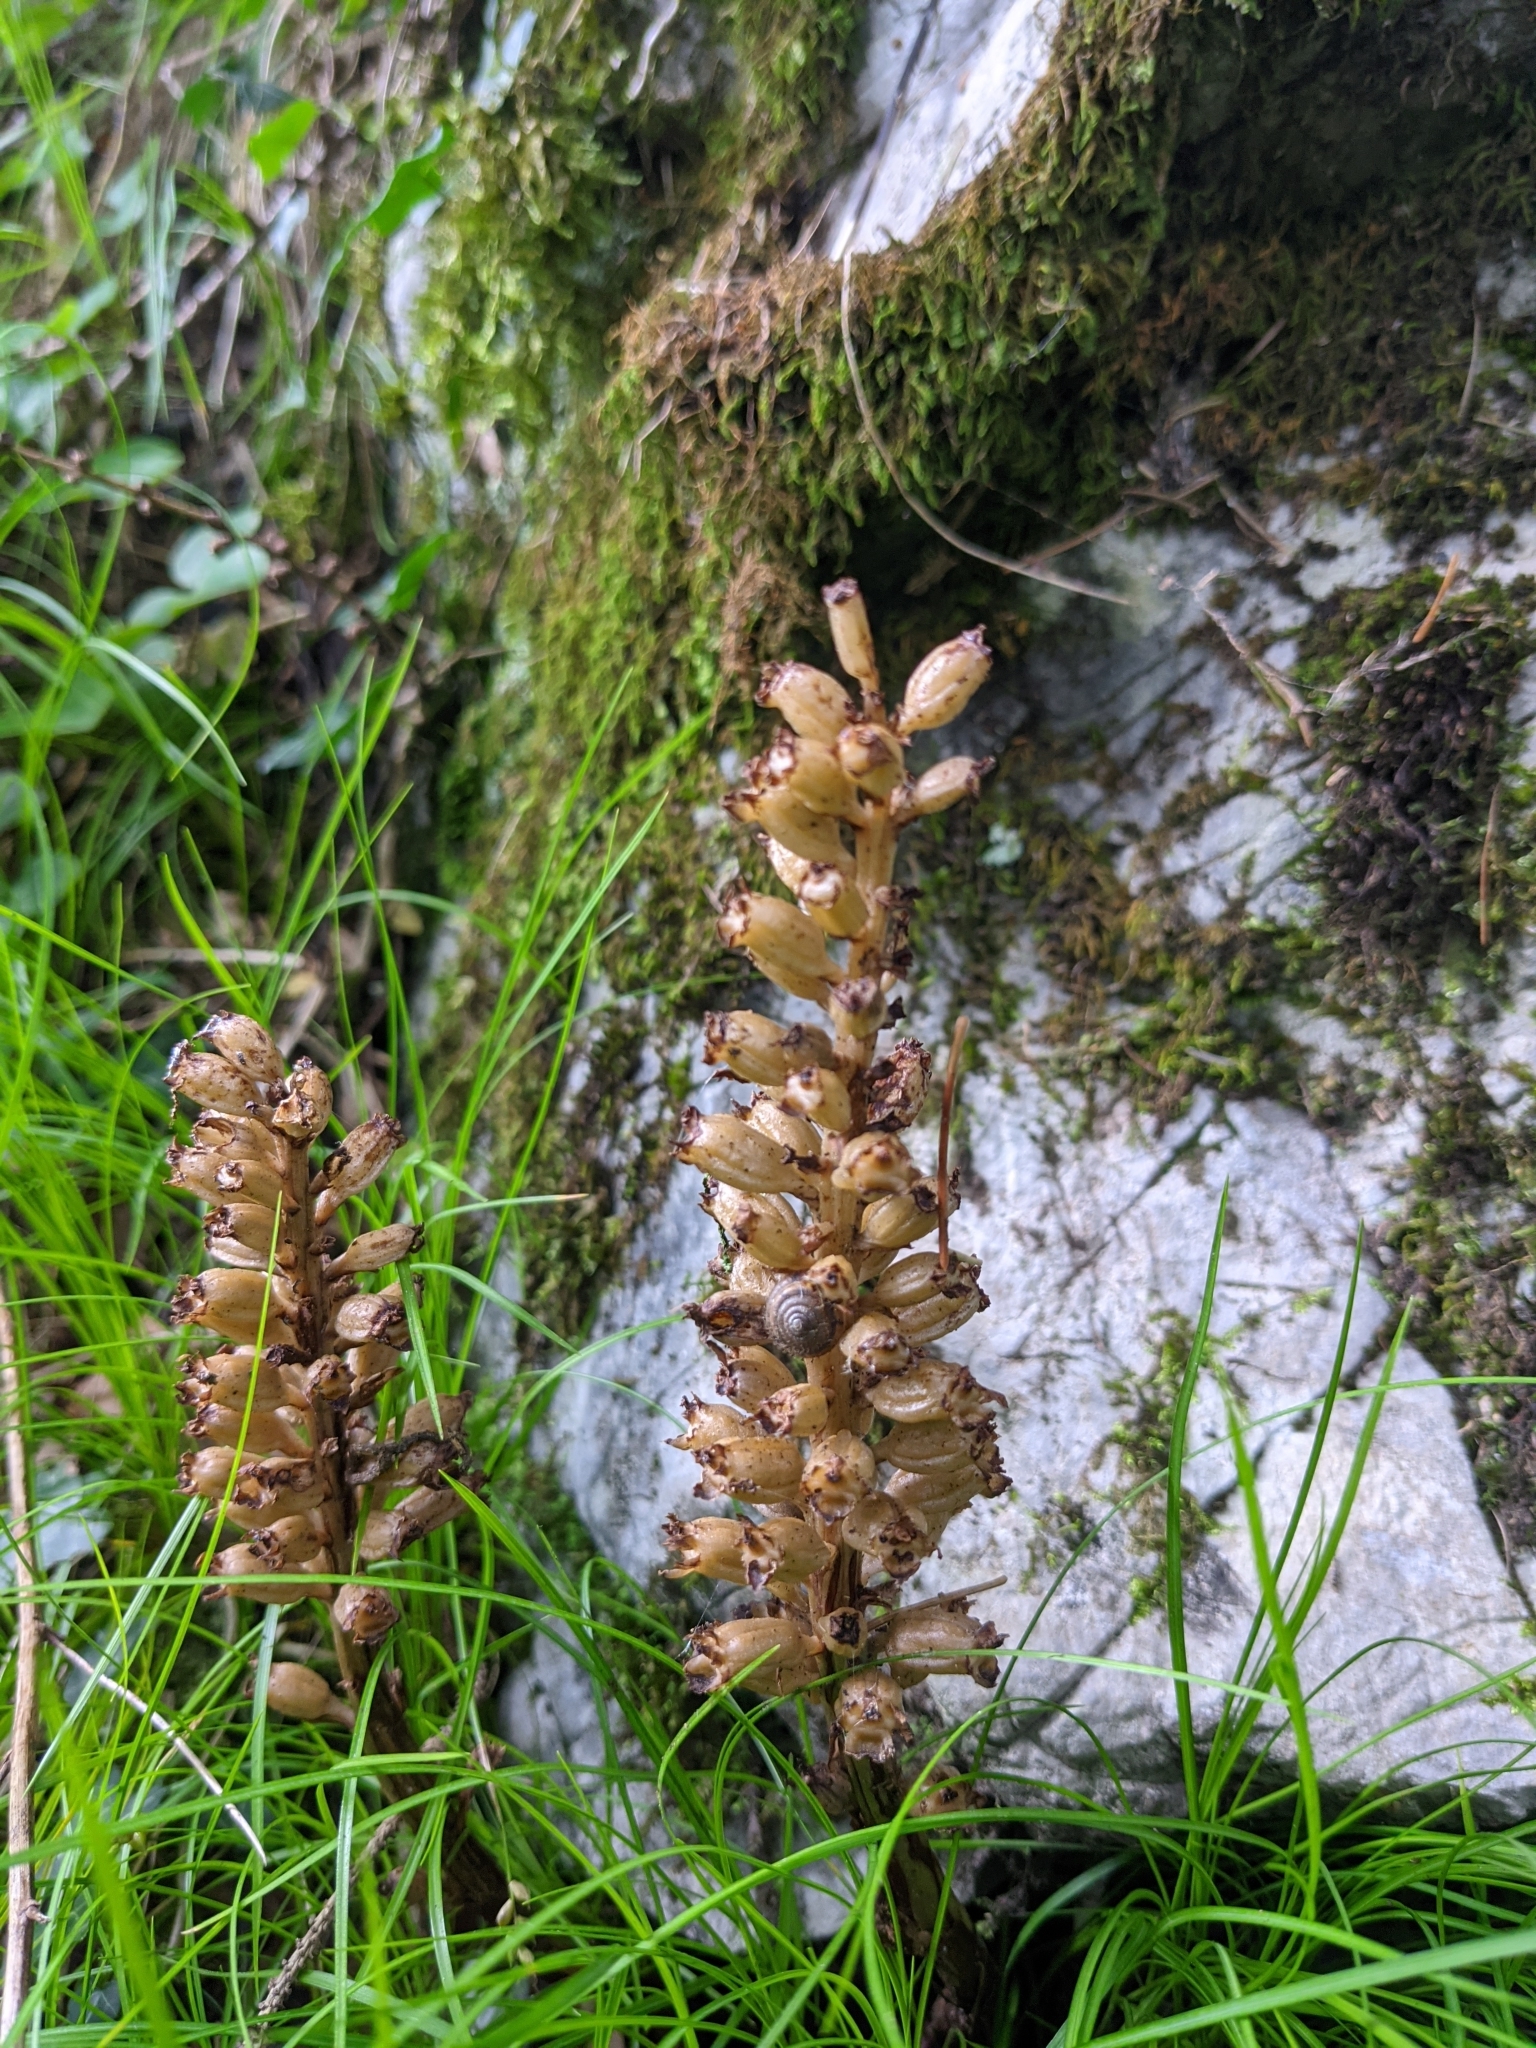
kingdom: Plantae
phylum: Tracheophyta
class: Liliopsida
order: Asparagales
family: Orchidaceae
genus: Neottia
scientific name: Neottia nidus-avis
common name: Bird's-nest orchid
